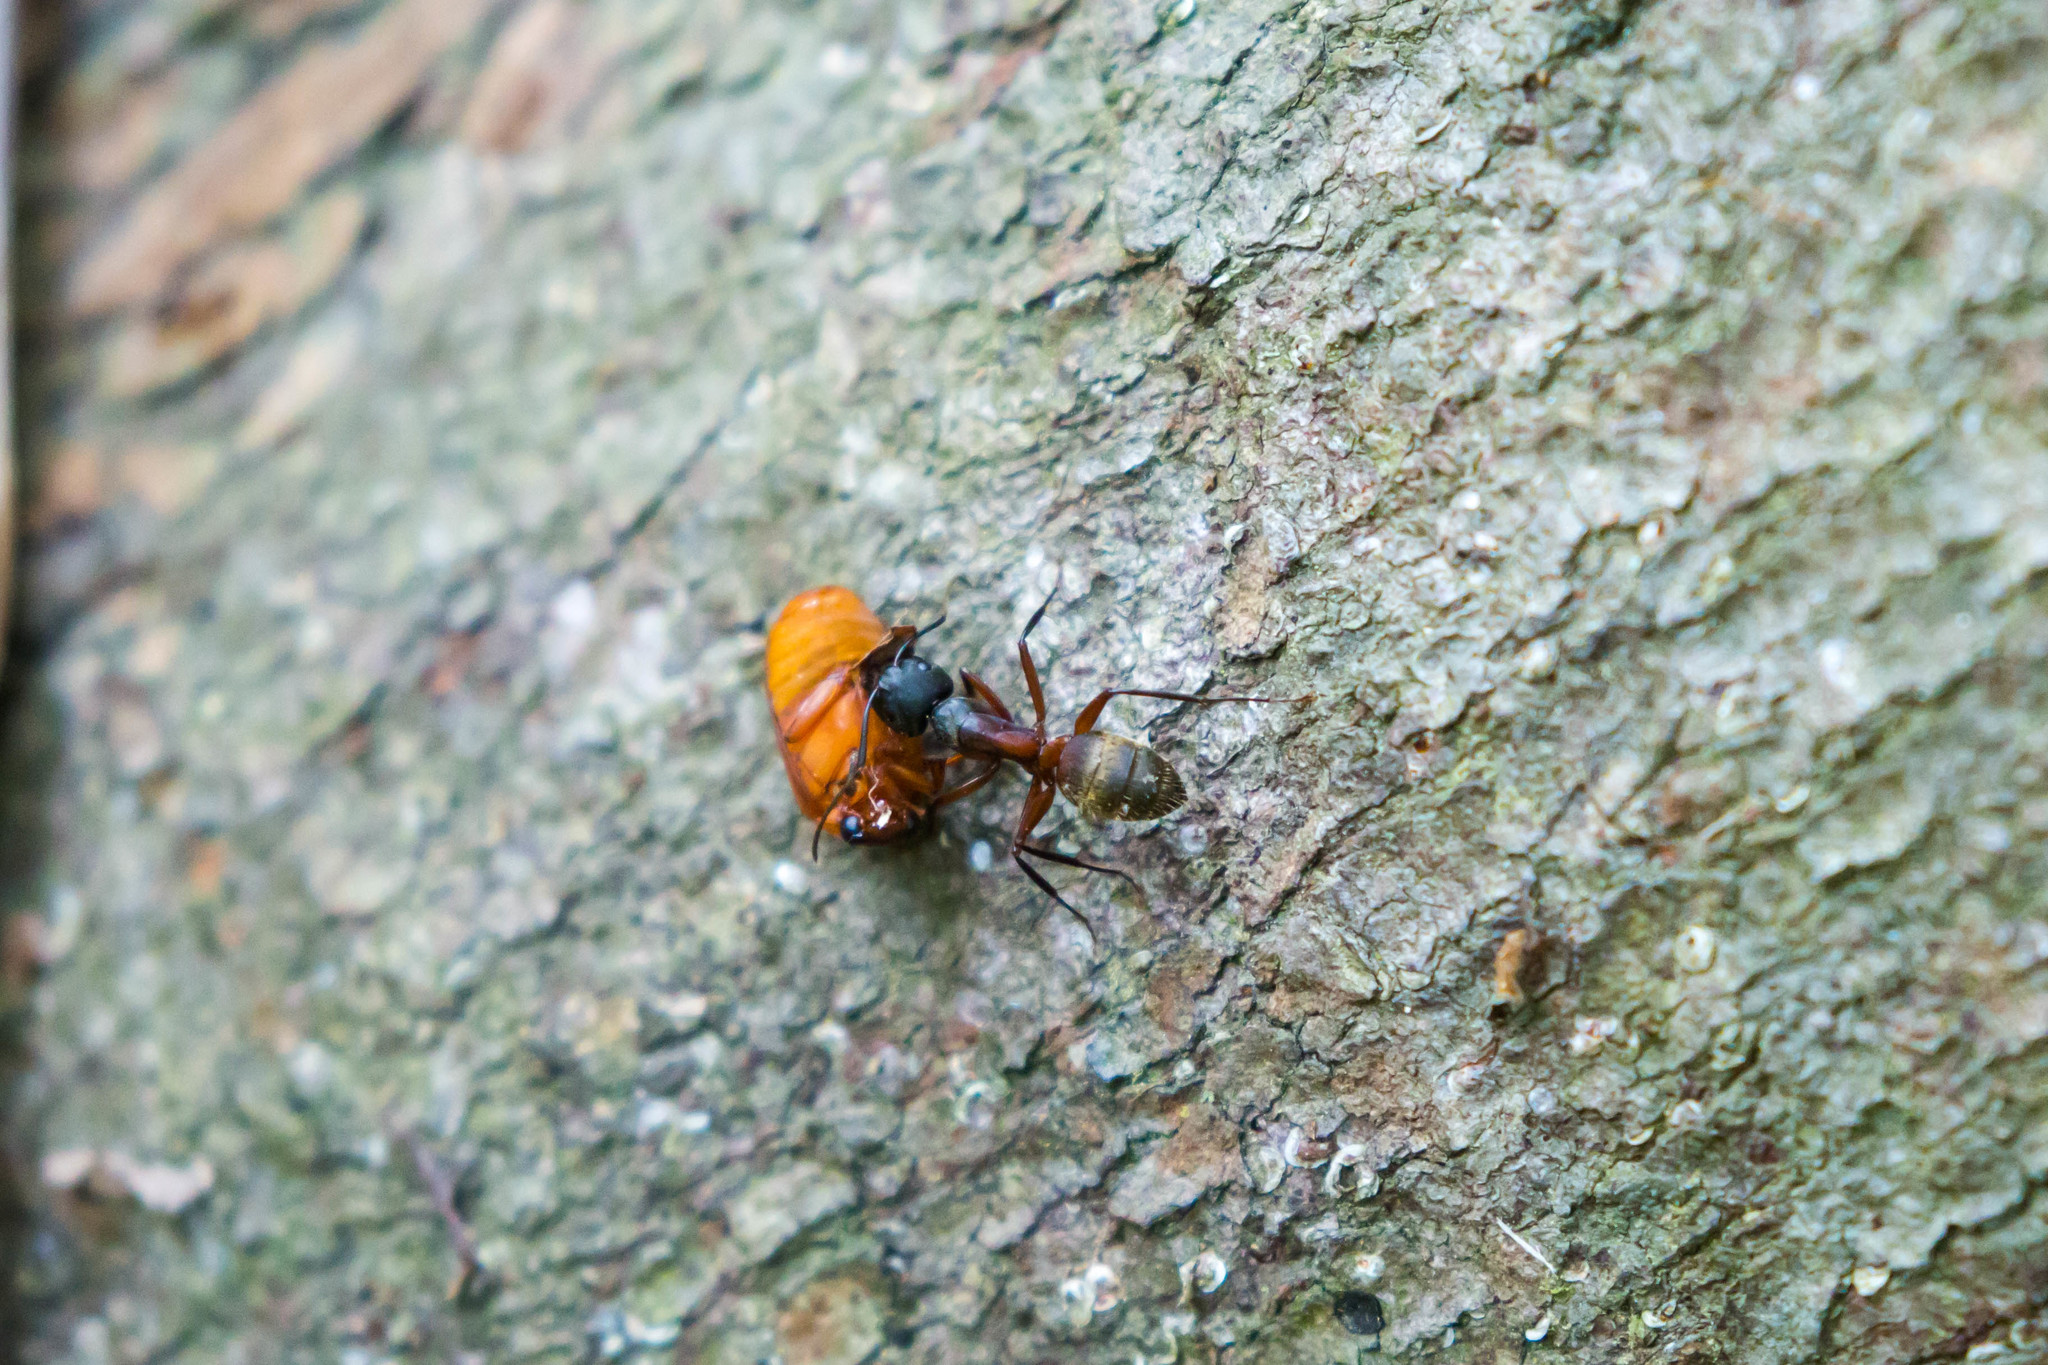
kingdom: Animalia
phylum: Arthropoda
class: Insecta
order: Hymenoptera
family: Formicidae
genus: Camponotus
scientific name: Camponotus chromaiodes
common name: Red carpenter ant
